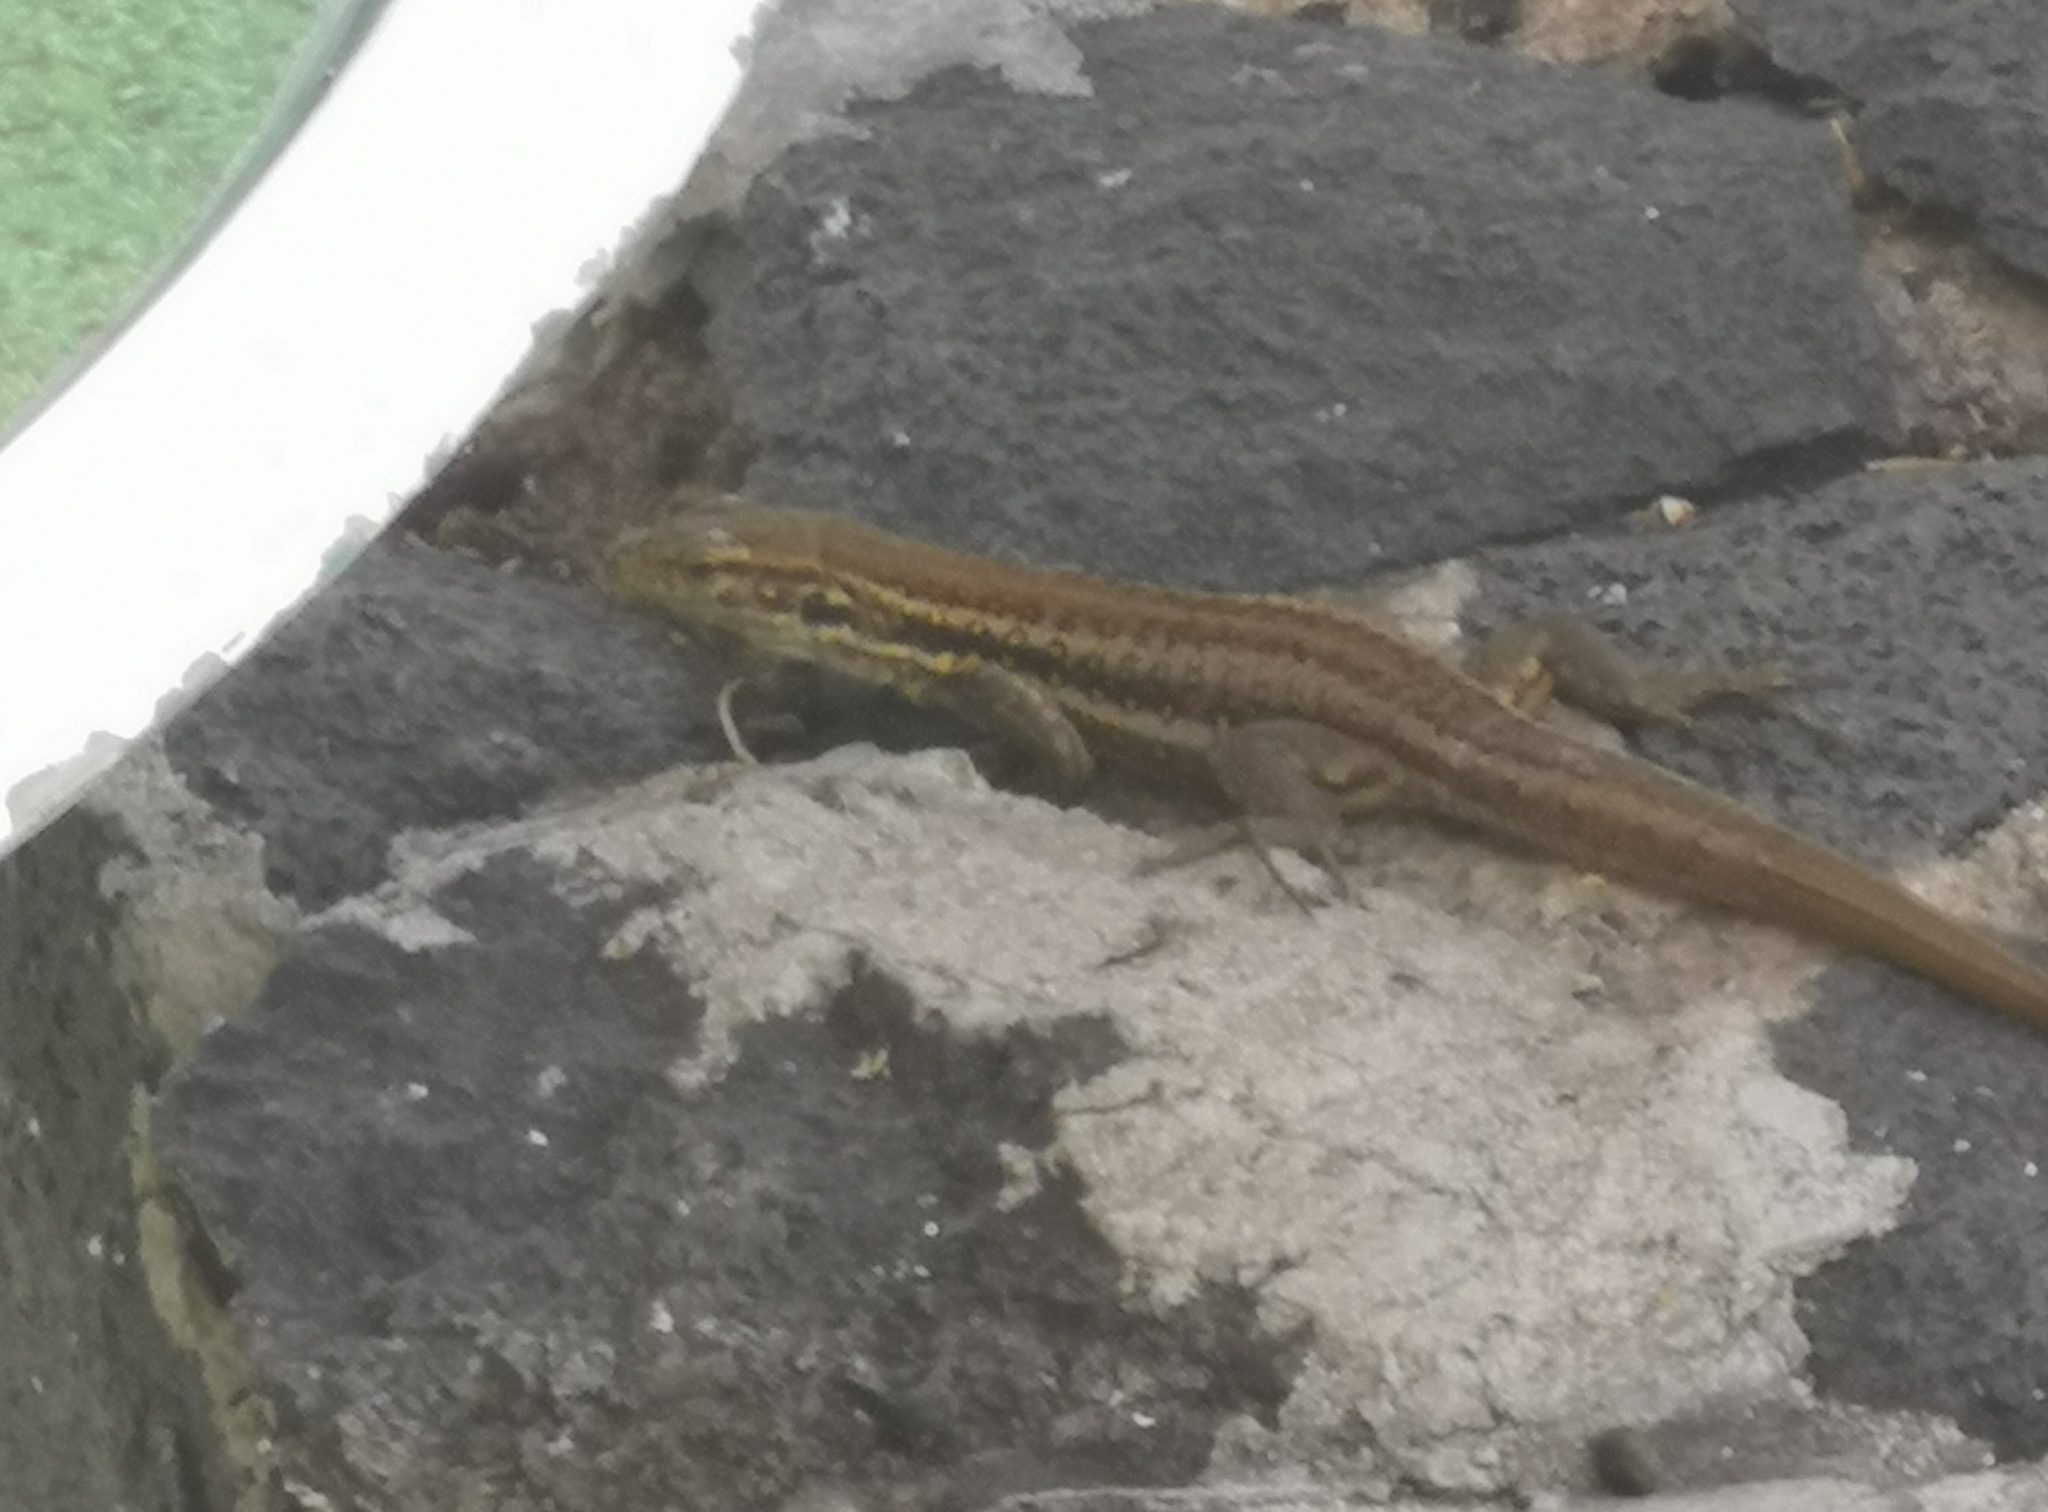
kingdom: Animalia
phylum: Chordata
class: Squamata
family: Lacertidae
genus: Gallotia
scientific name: Gallotia galloti
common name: Gallot's lizard
